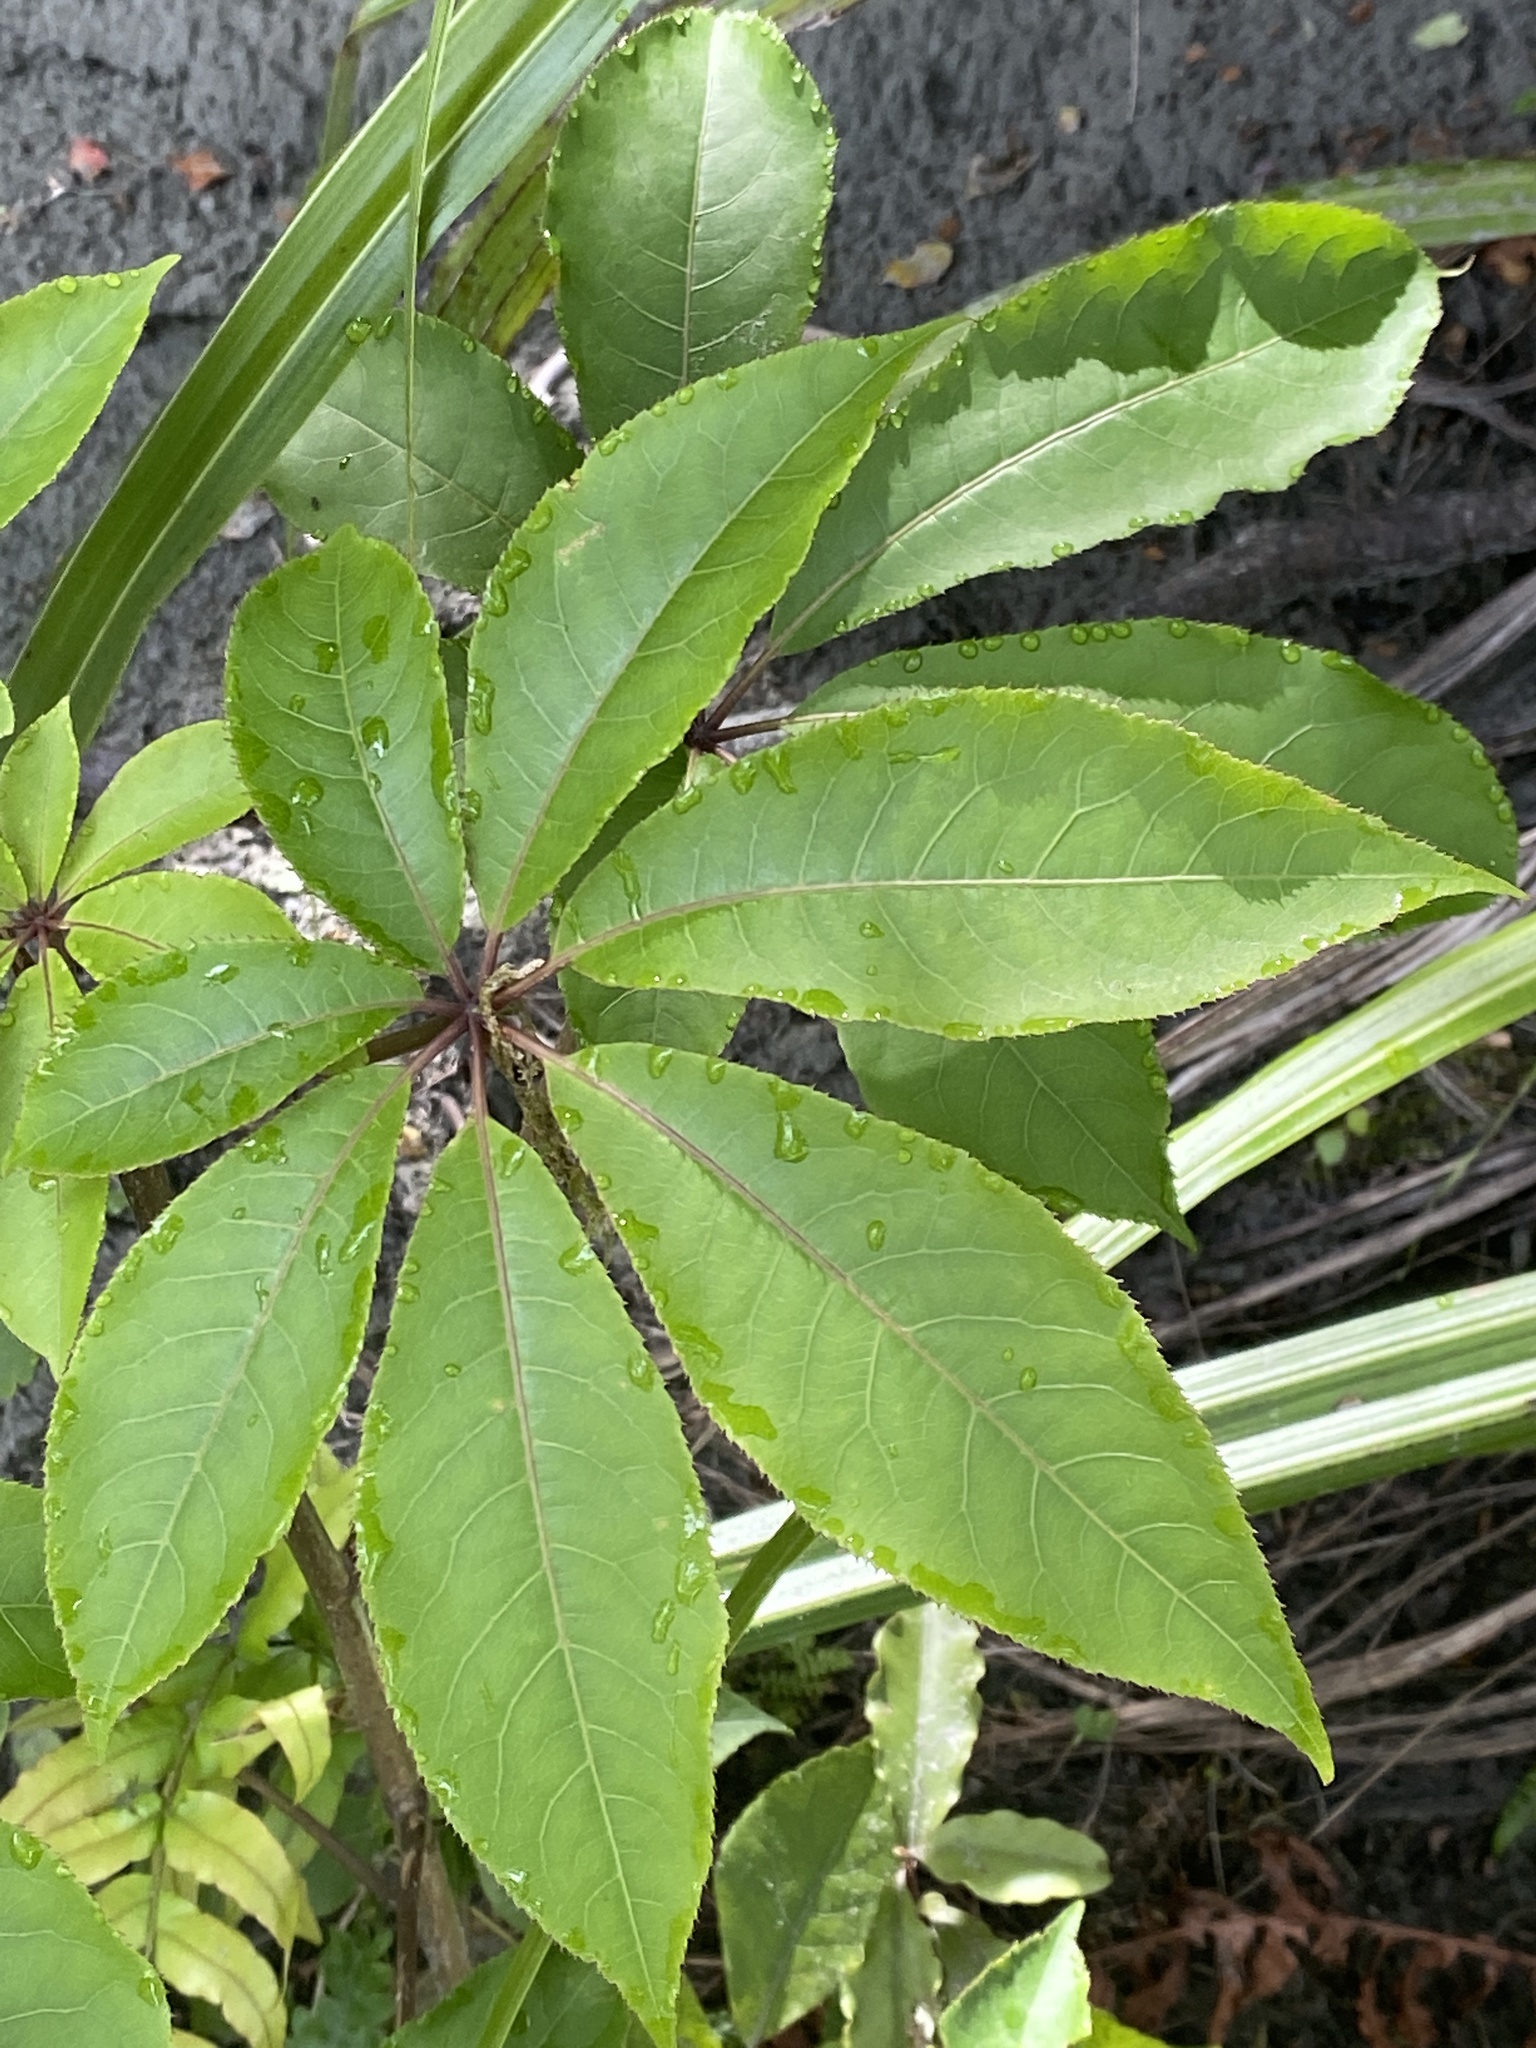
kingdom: Plantae
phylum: Tracheophyta
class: Magnoliopsida
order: Apiales
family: Araliaceae
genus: Schefflera
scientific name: Schefflera digitata
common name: Pate
